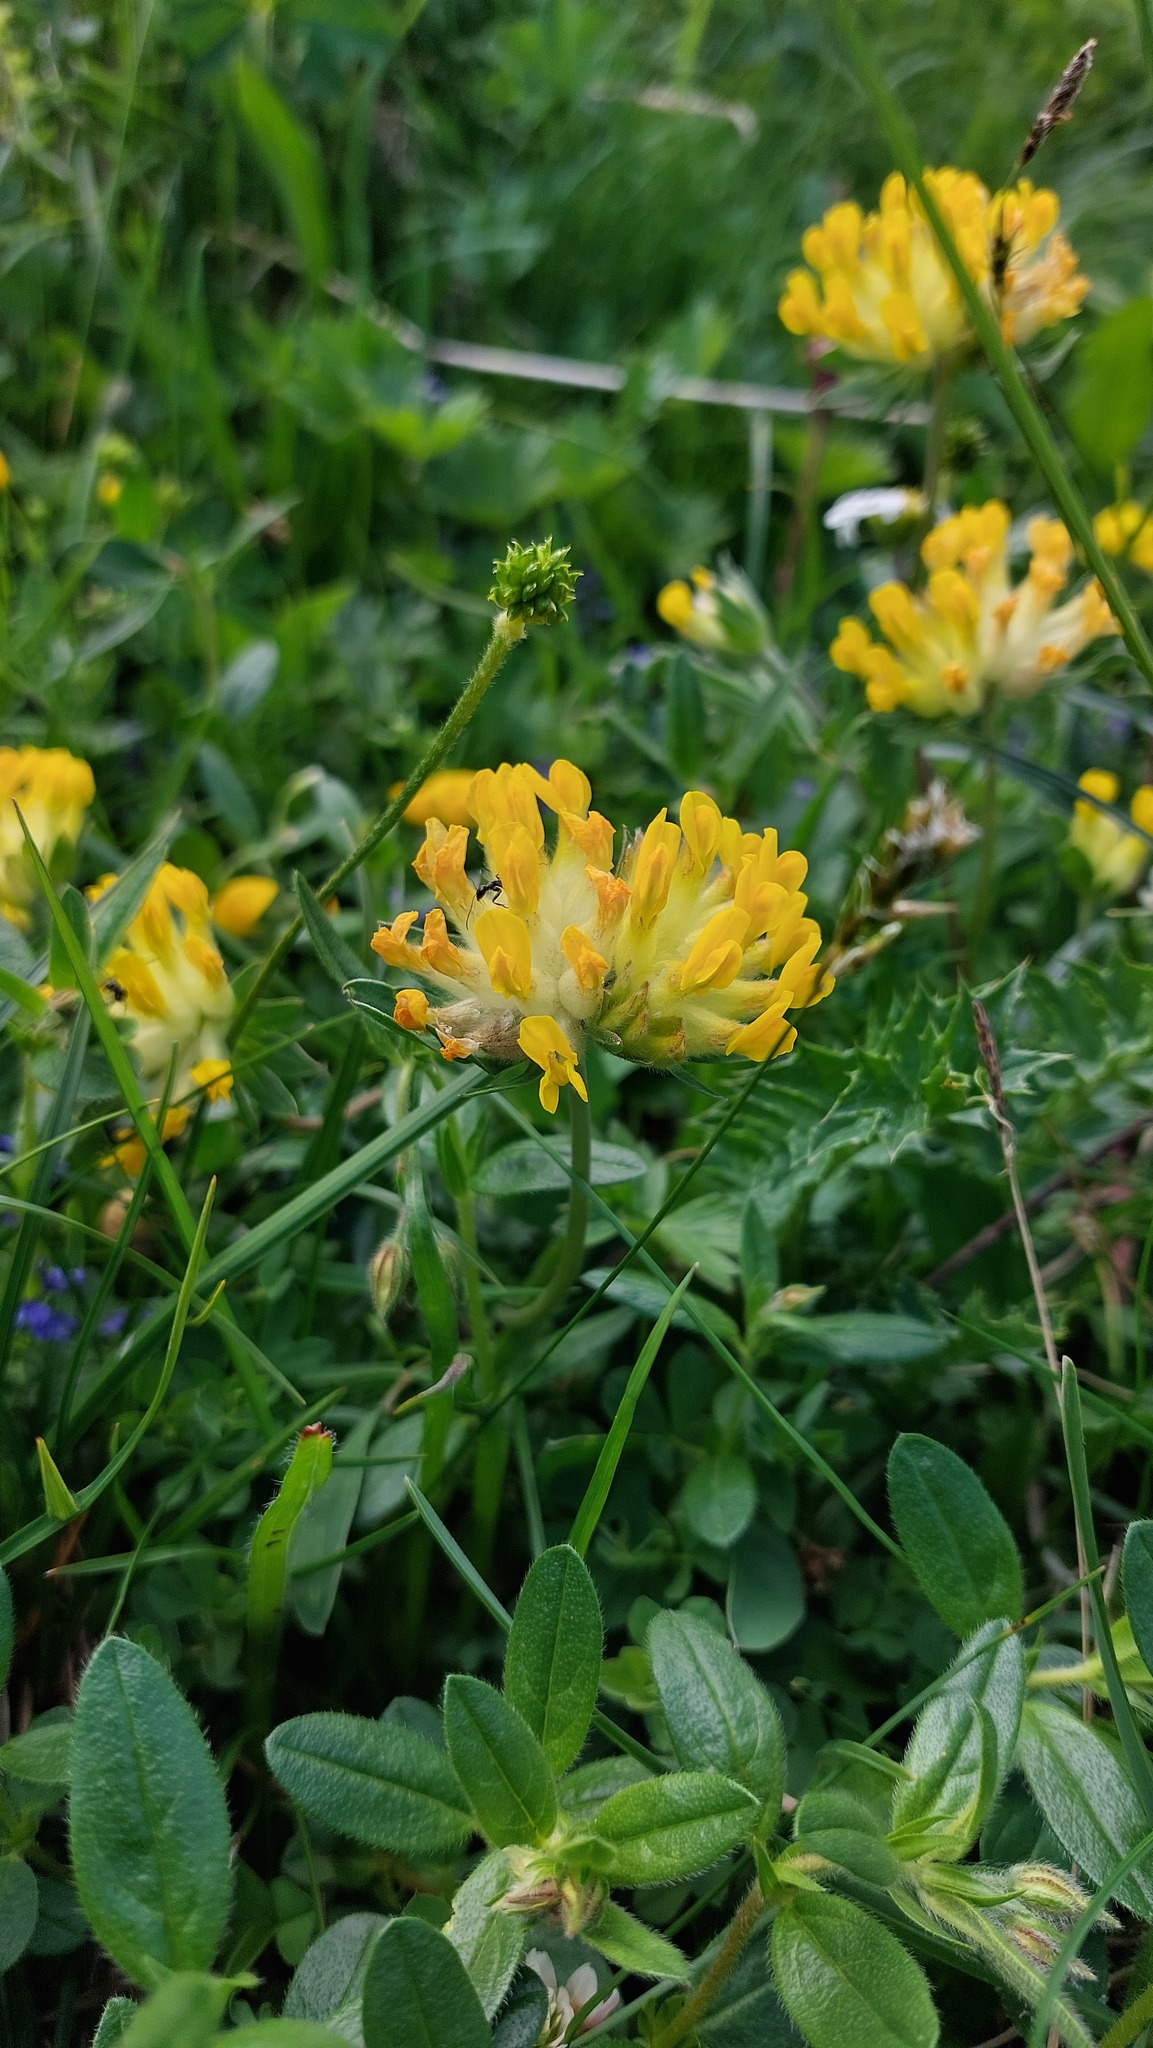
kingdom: Plantae
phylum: Tracheophyta
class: Magnoliopsida
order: Fabales
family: Fabaceae
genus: Anthyllis
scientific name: Anthyllis vulneraria
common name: Kidney vetch
